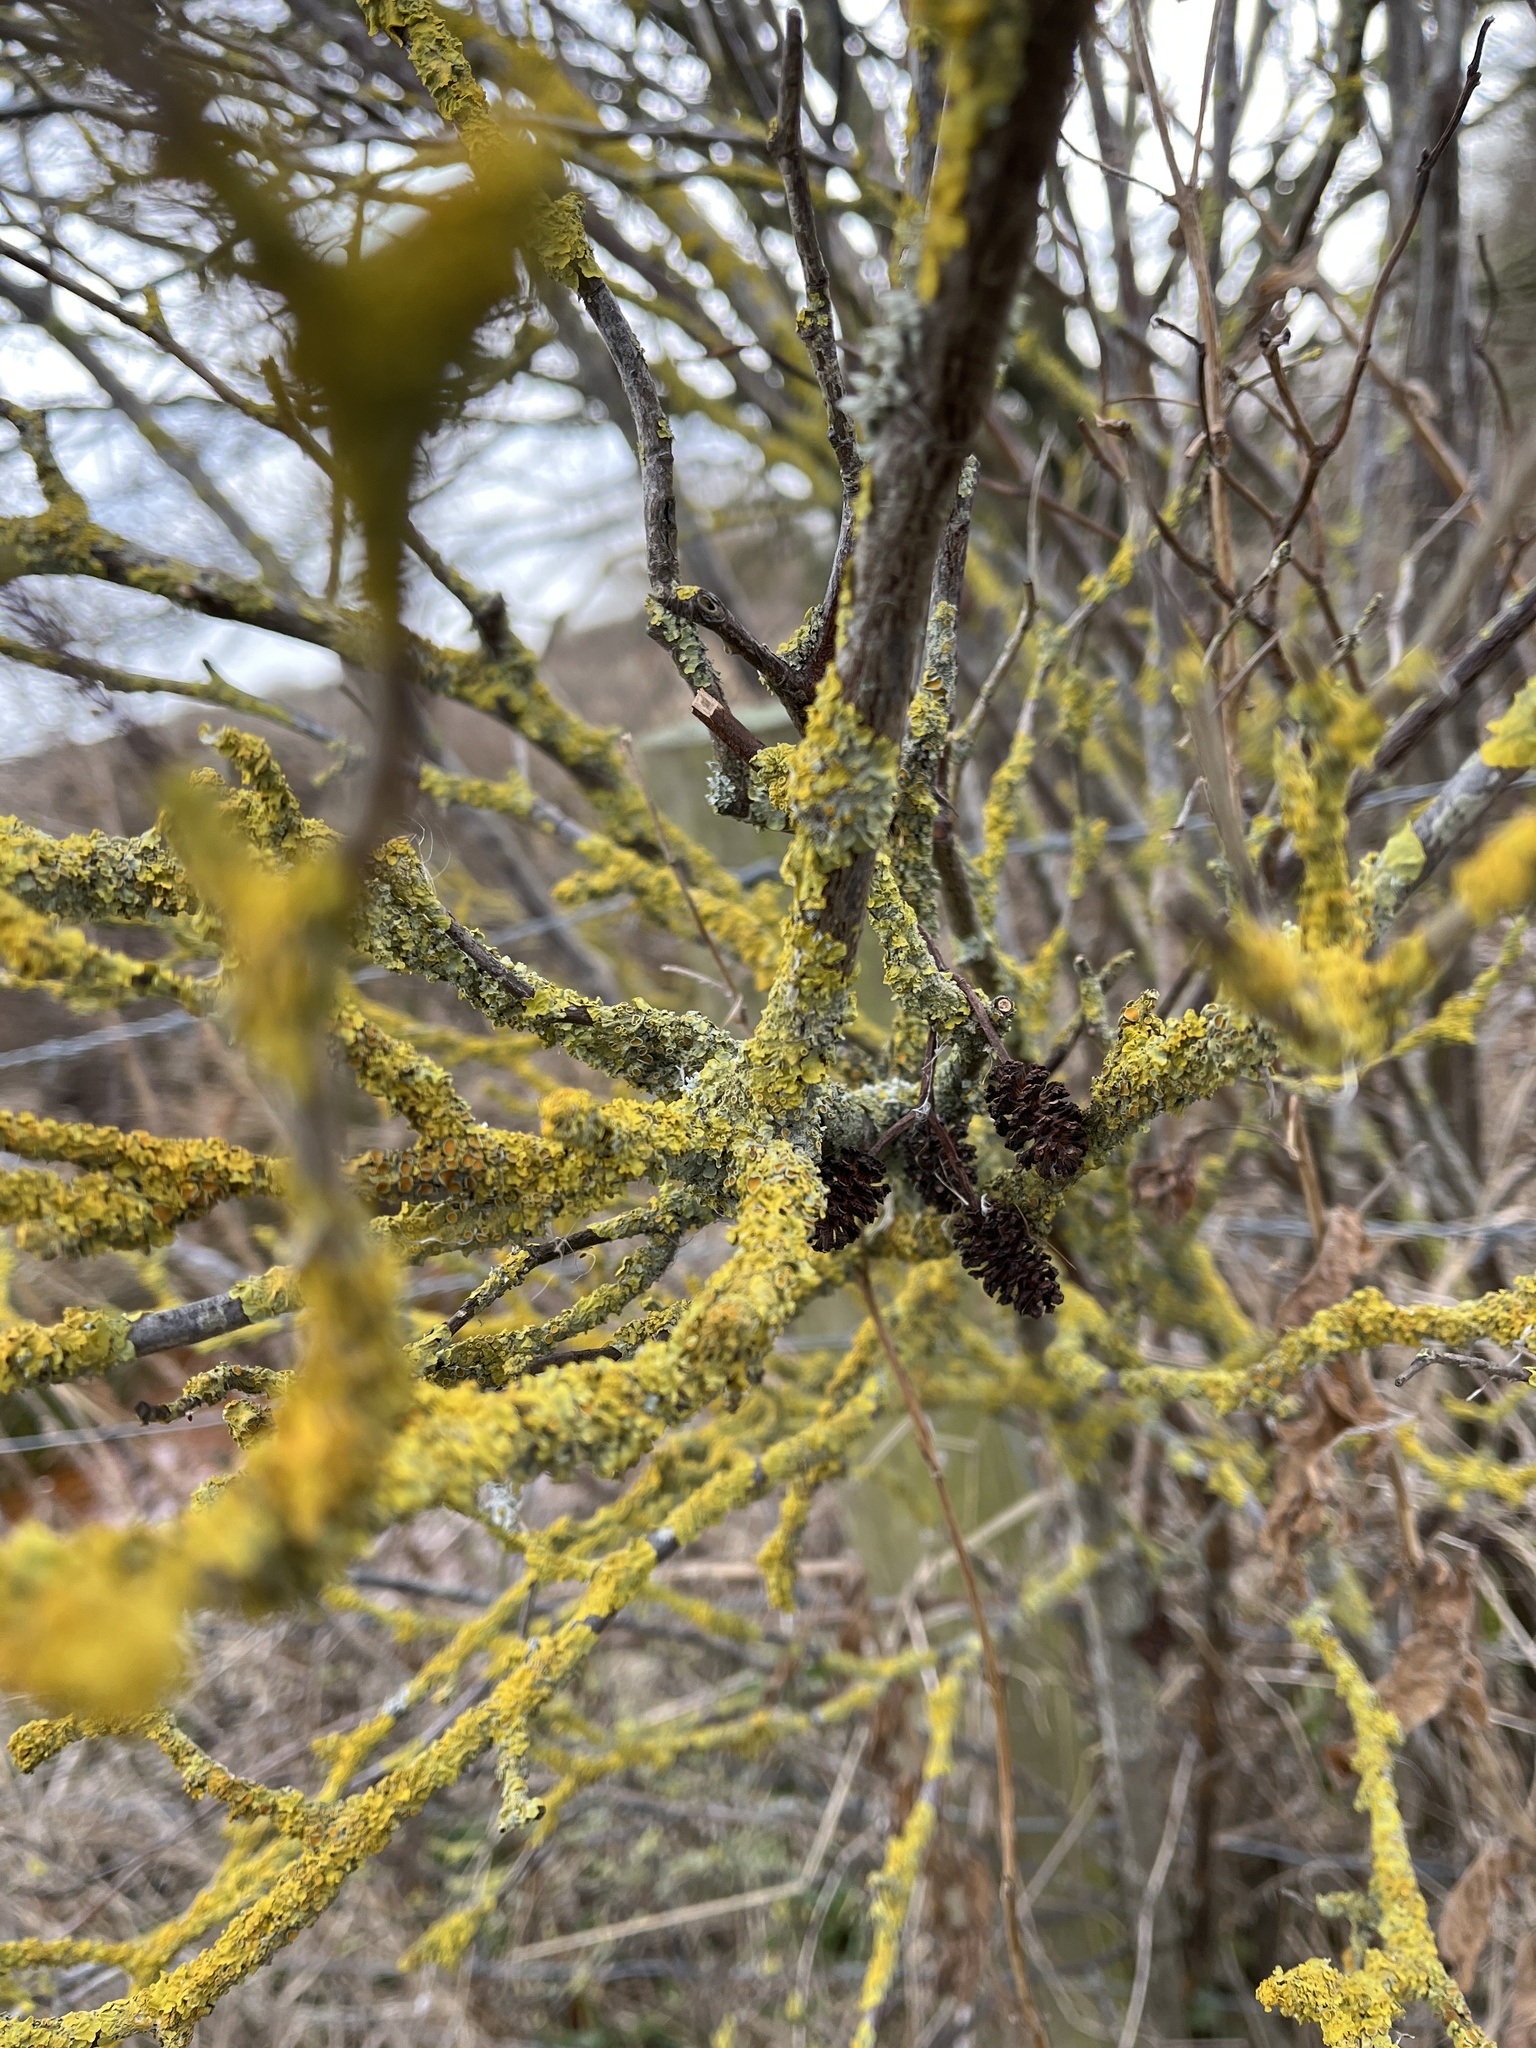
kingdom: Plantae
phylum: Tracheophyta
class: Magnoliopsida
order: Fagales
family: Betulaceae
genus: Alnus
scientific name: Alnus glutinosa
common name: Black alder
